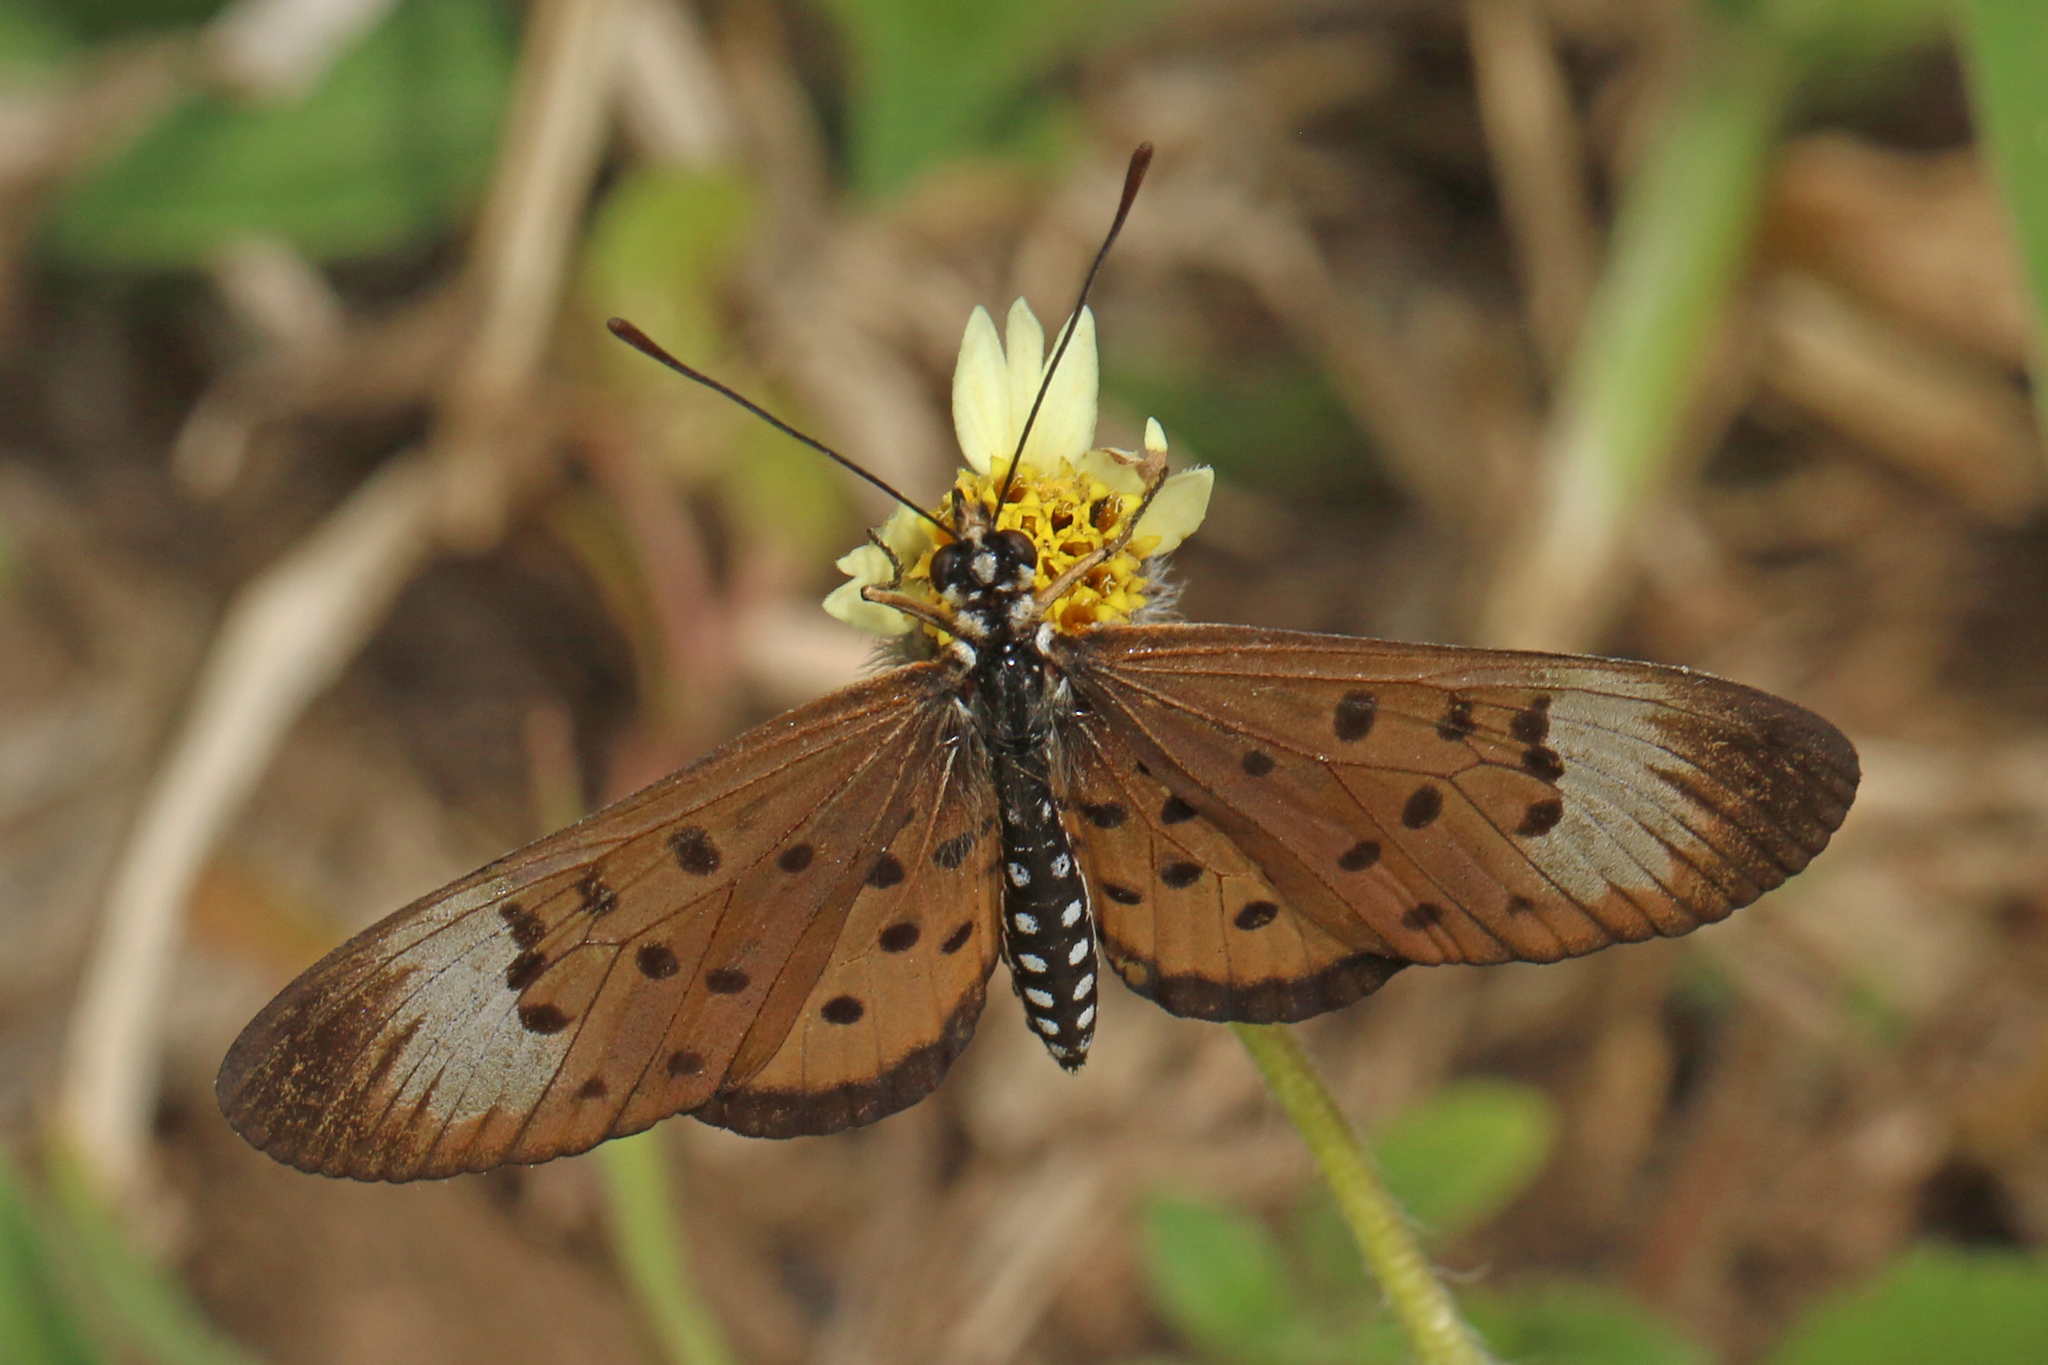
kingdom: Animalia
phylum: Arthropoda
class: Insecta
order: Lepidoptera
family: Nymphalidae
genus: Stephenia
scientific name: Stephenia
